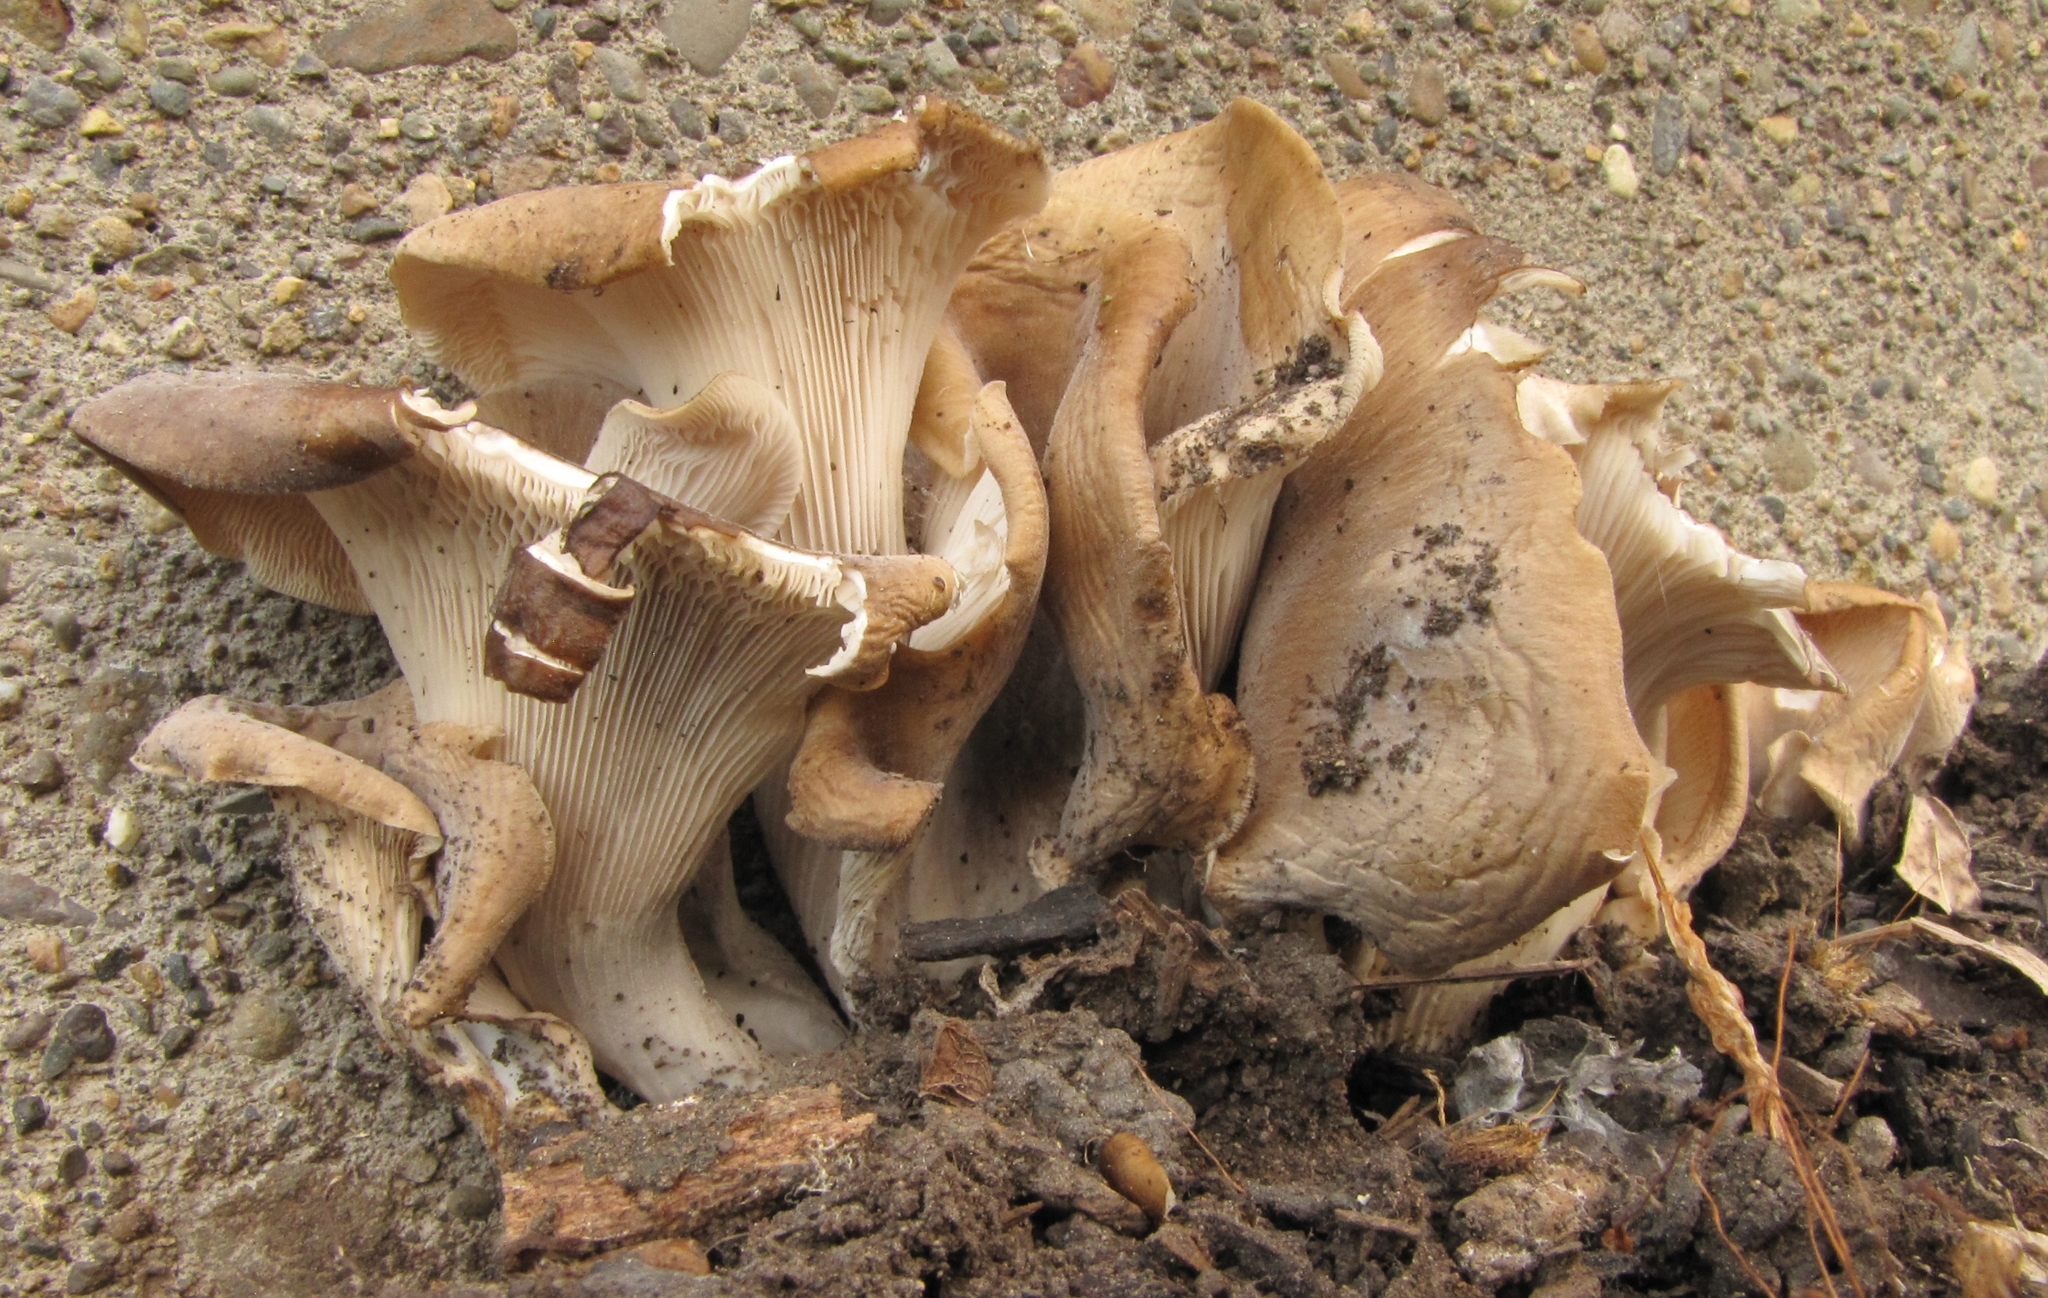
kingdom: Fungi
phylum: Basidiomycota
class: Agaricomycetes
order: Agaricales
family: Pleurotaceae
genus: Hohenbuehelia
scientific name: Hohenbuehelia petaloides
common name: Shoehorn oyster
